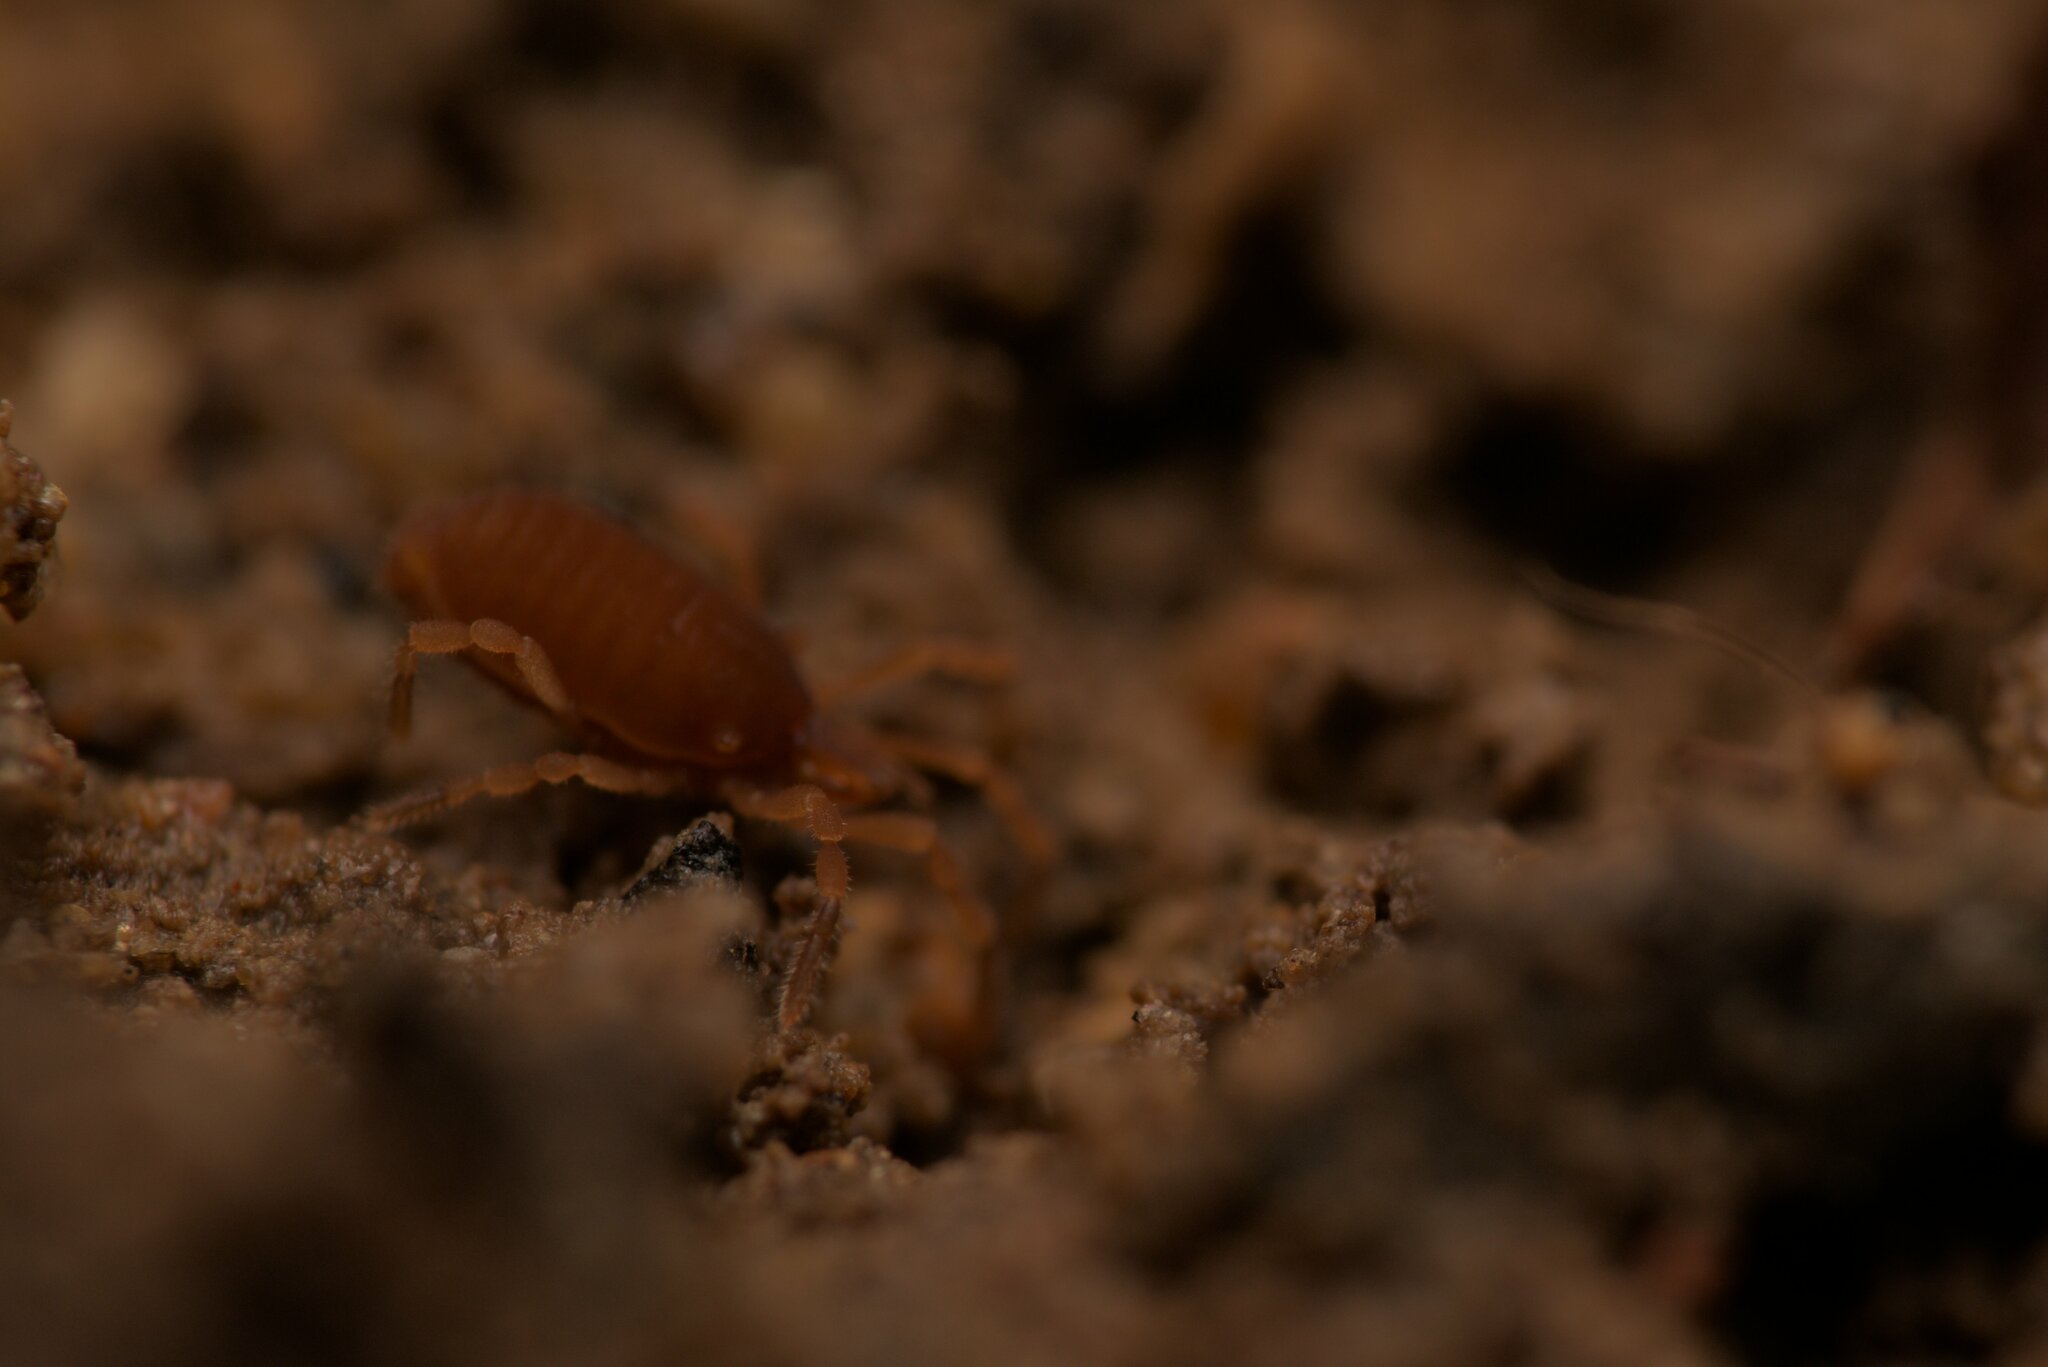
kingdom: Animalia
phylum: Arthropoda
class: Arachnida
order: Opiliones
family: Sironidae
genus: Siro
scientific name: Siro rubens
